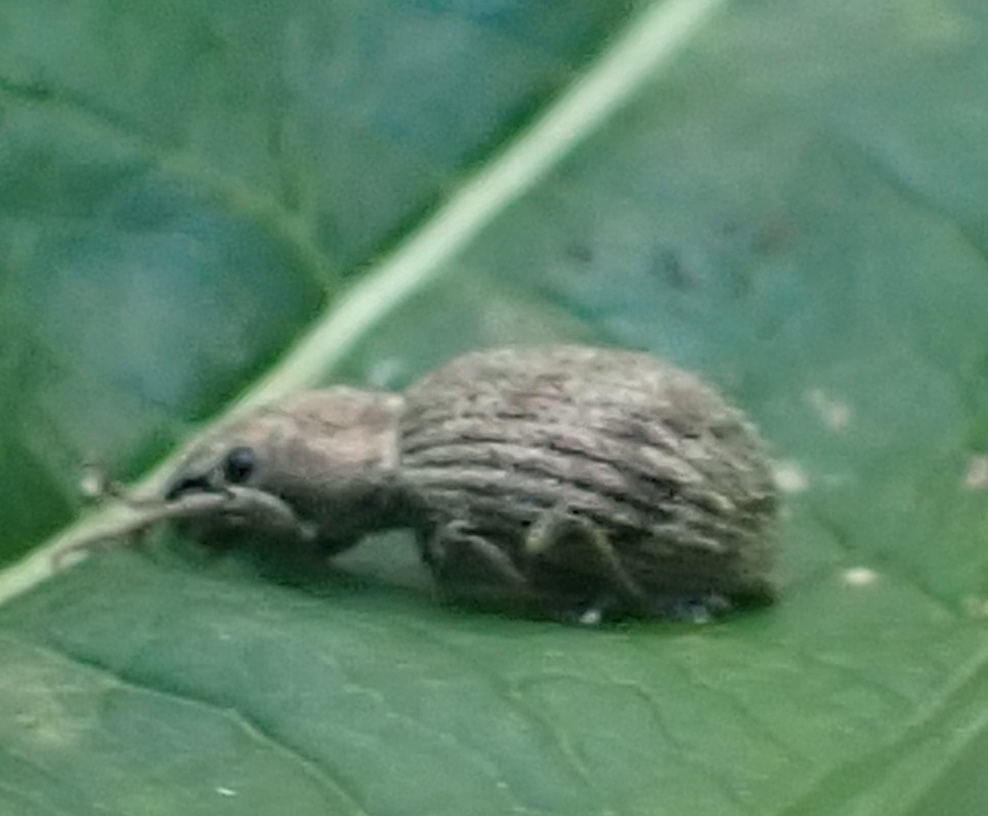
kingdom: Animalia
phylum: Arthropoda
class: Insecta
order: Coleoptera
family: Curculionidae
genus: Sciaphilus
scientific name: Sciaphilus asperatus
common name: Weevil
